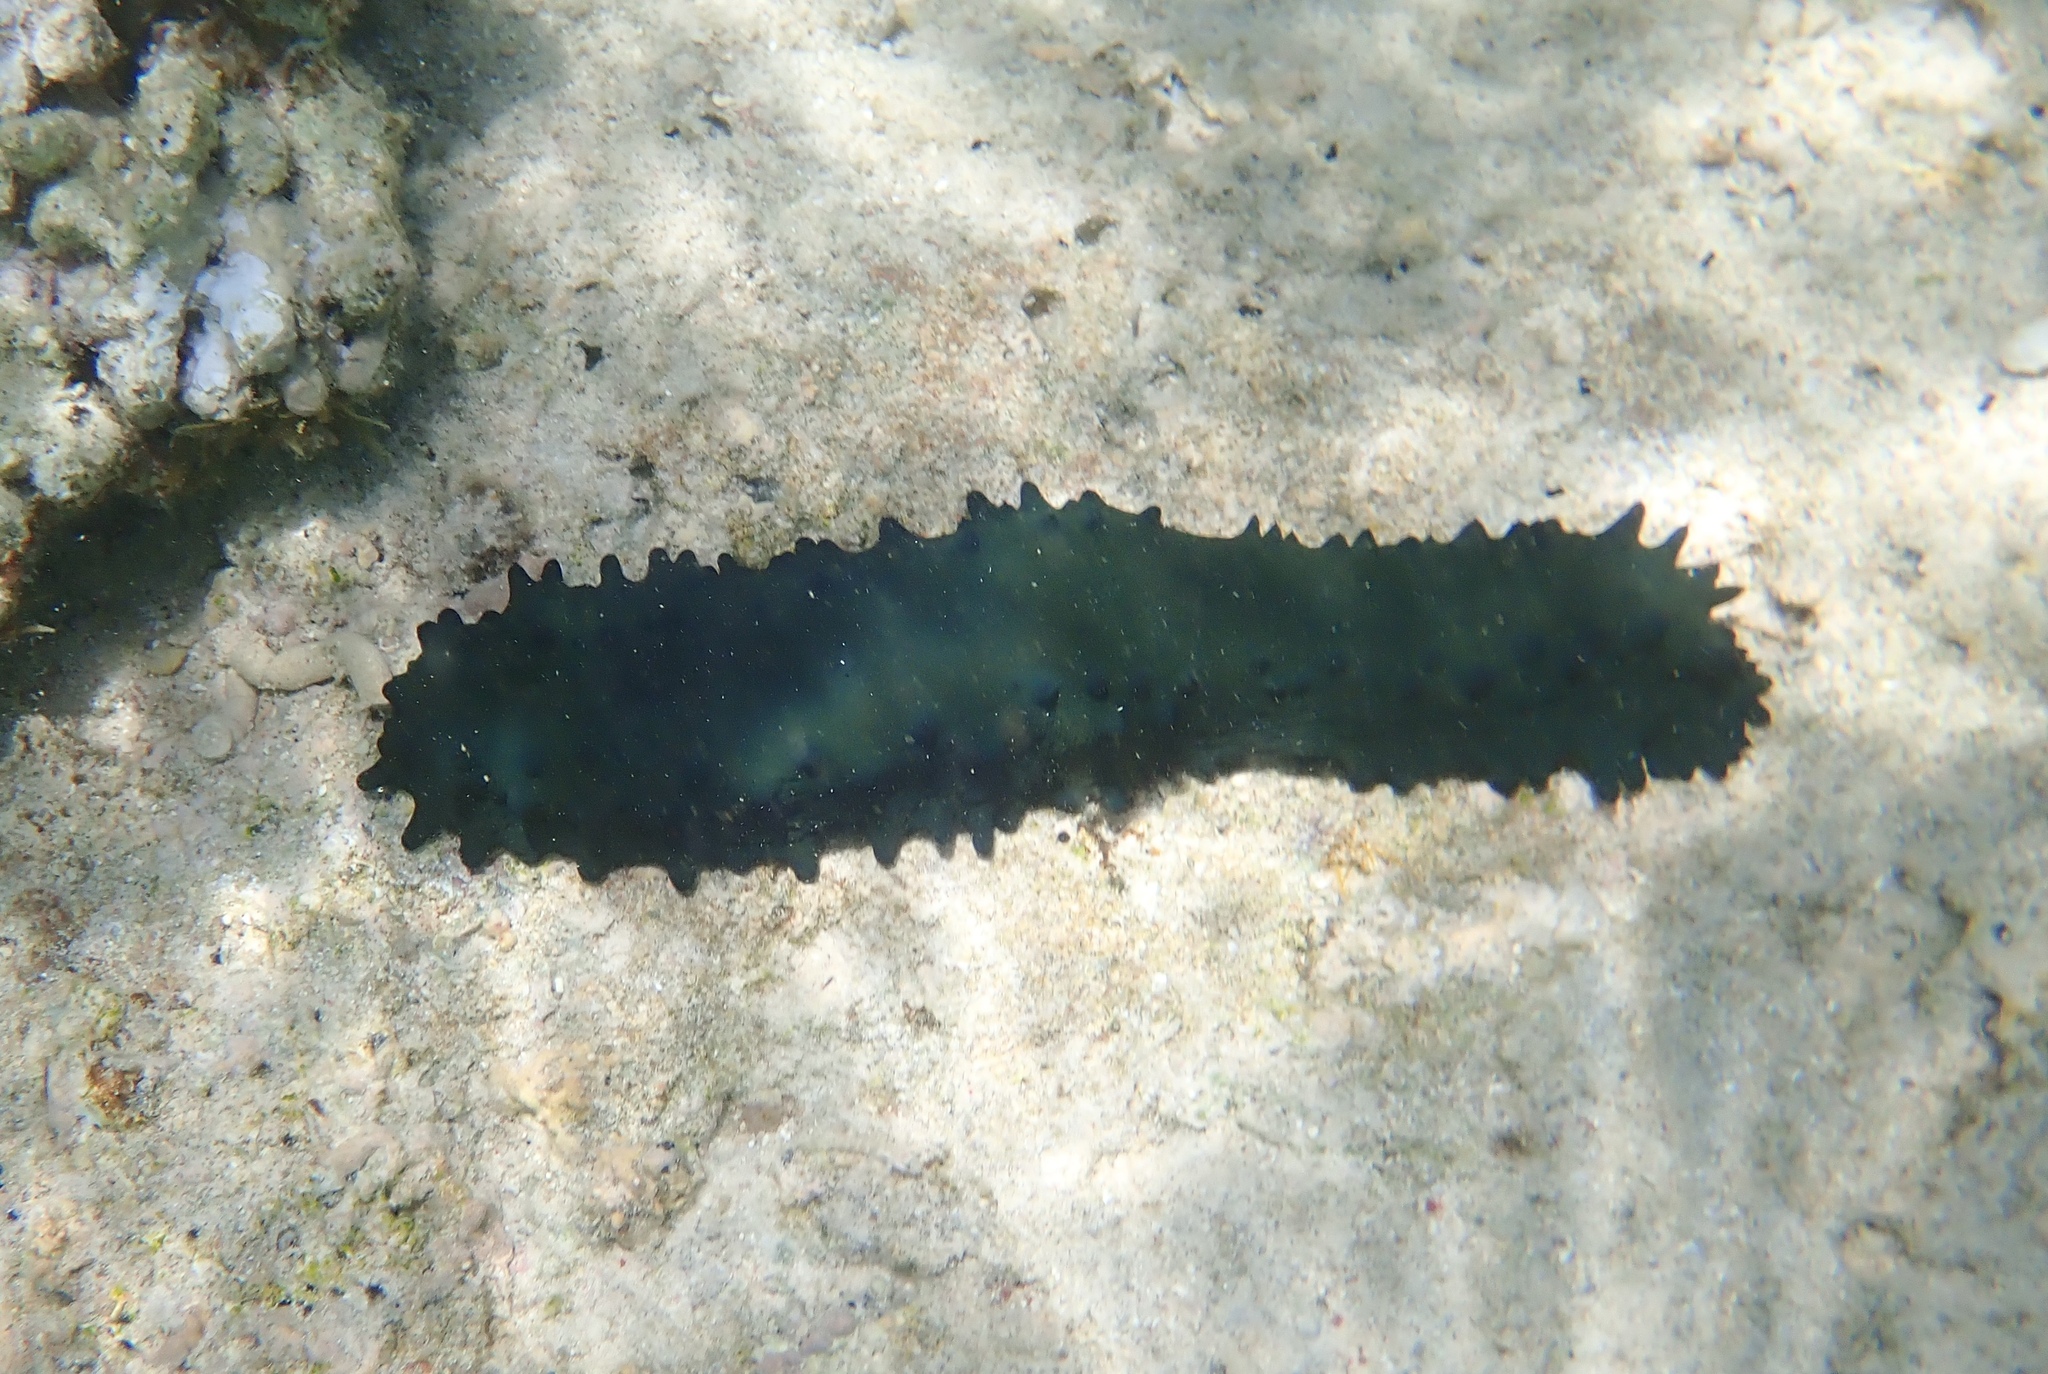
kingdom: Animalia
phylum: Echinodermata
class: Holothuroidea
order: Synallactida
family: Stichopodidae
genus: Stichopus
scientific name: Stichopus chloronotus
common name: Greenfish
